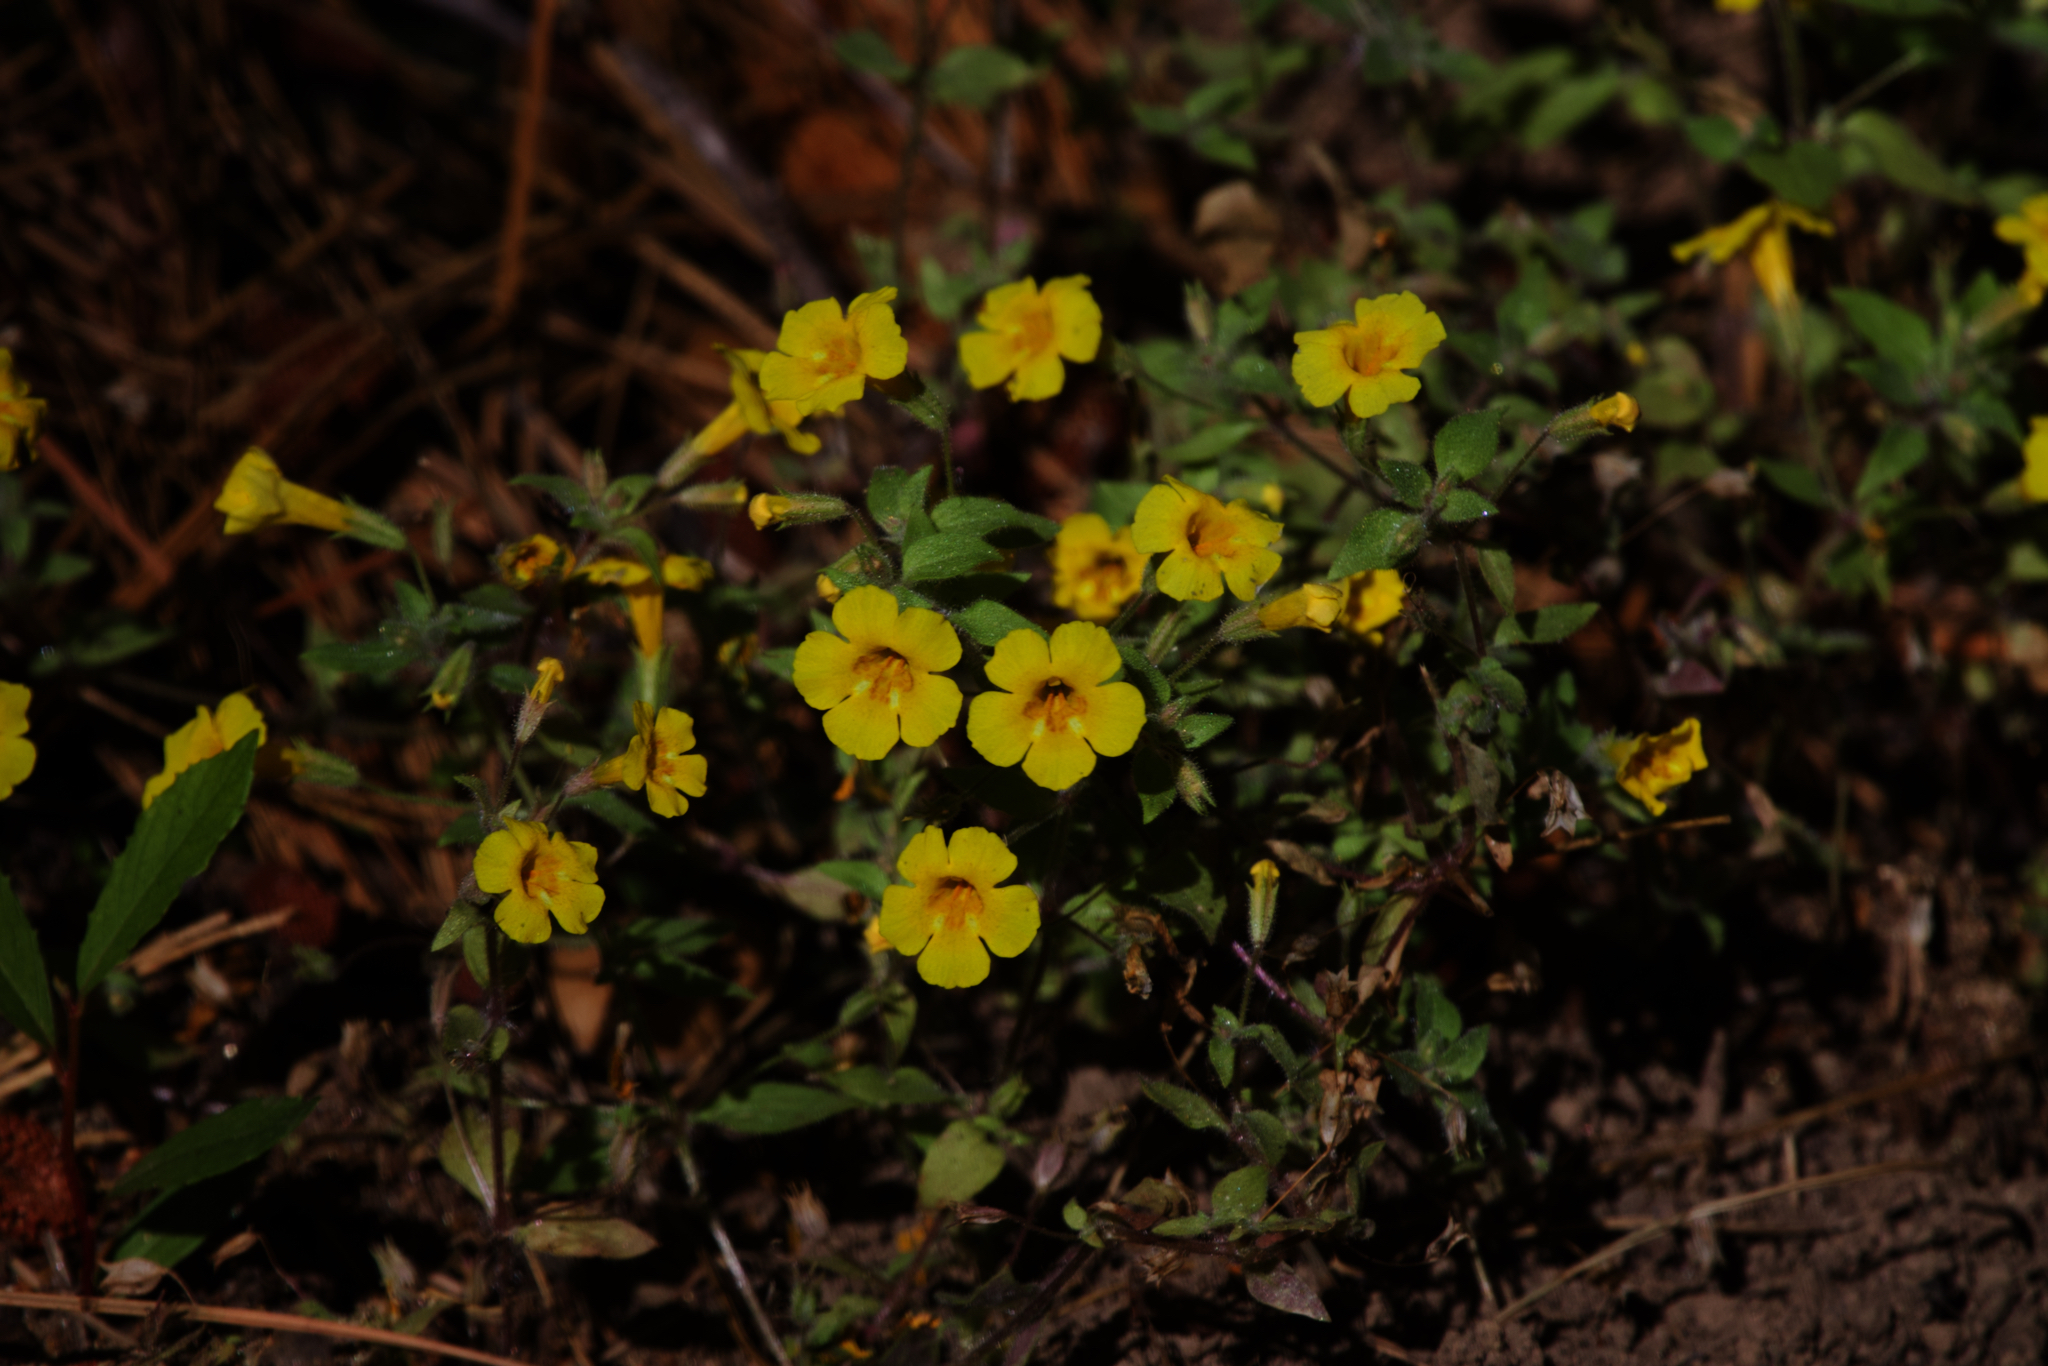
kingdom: Plantae
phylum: Tracheophyta
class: Magnoliopsida
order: Lamiales
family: Phrymaceae
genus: Erythranthe
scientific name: Erythranthe arenaria
